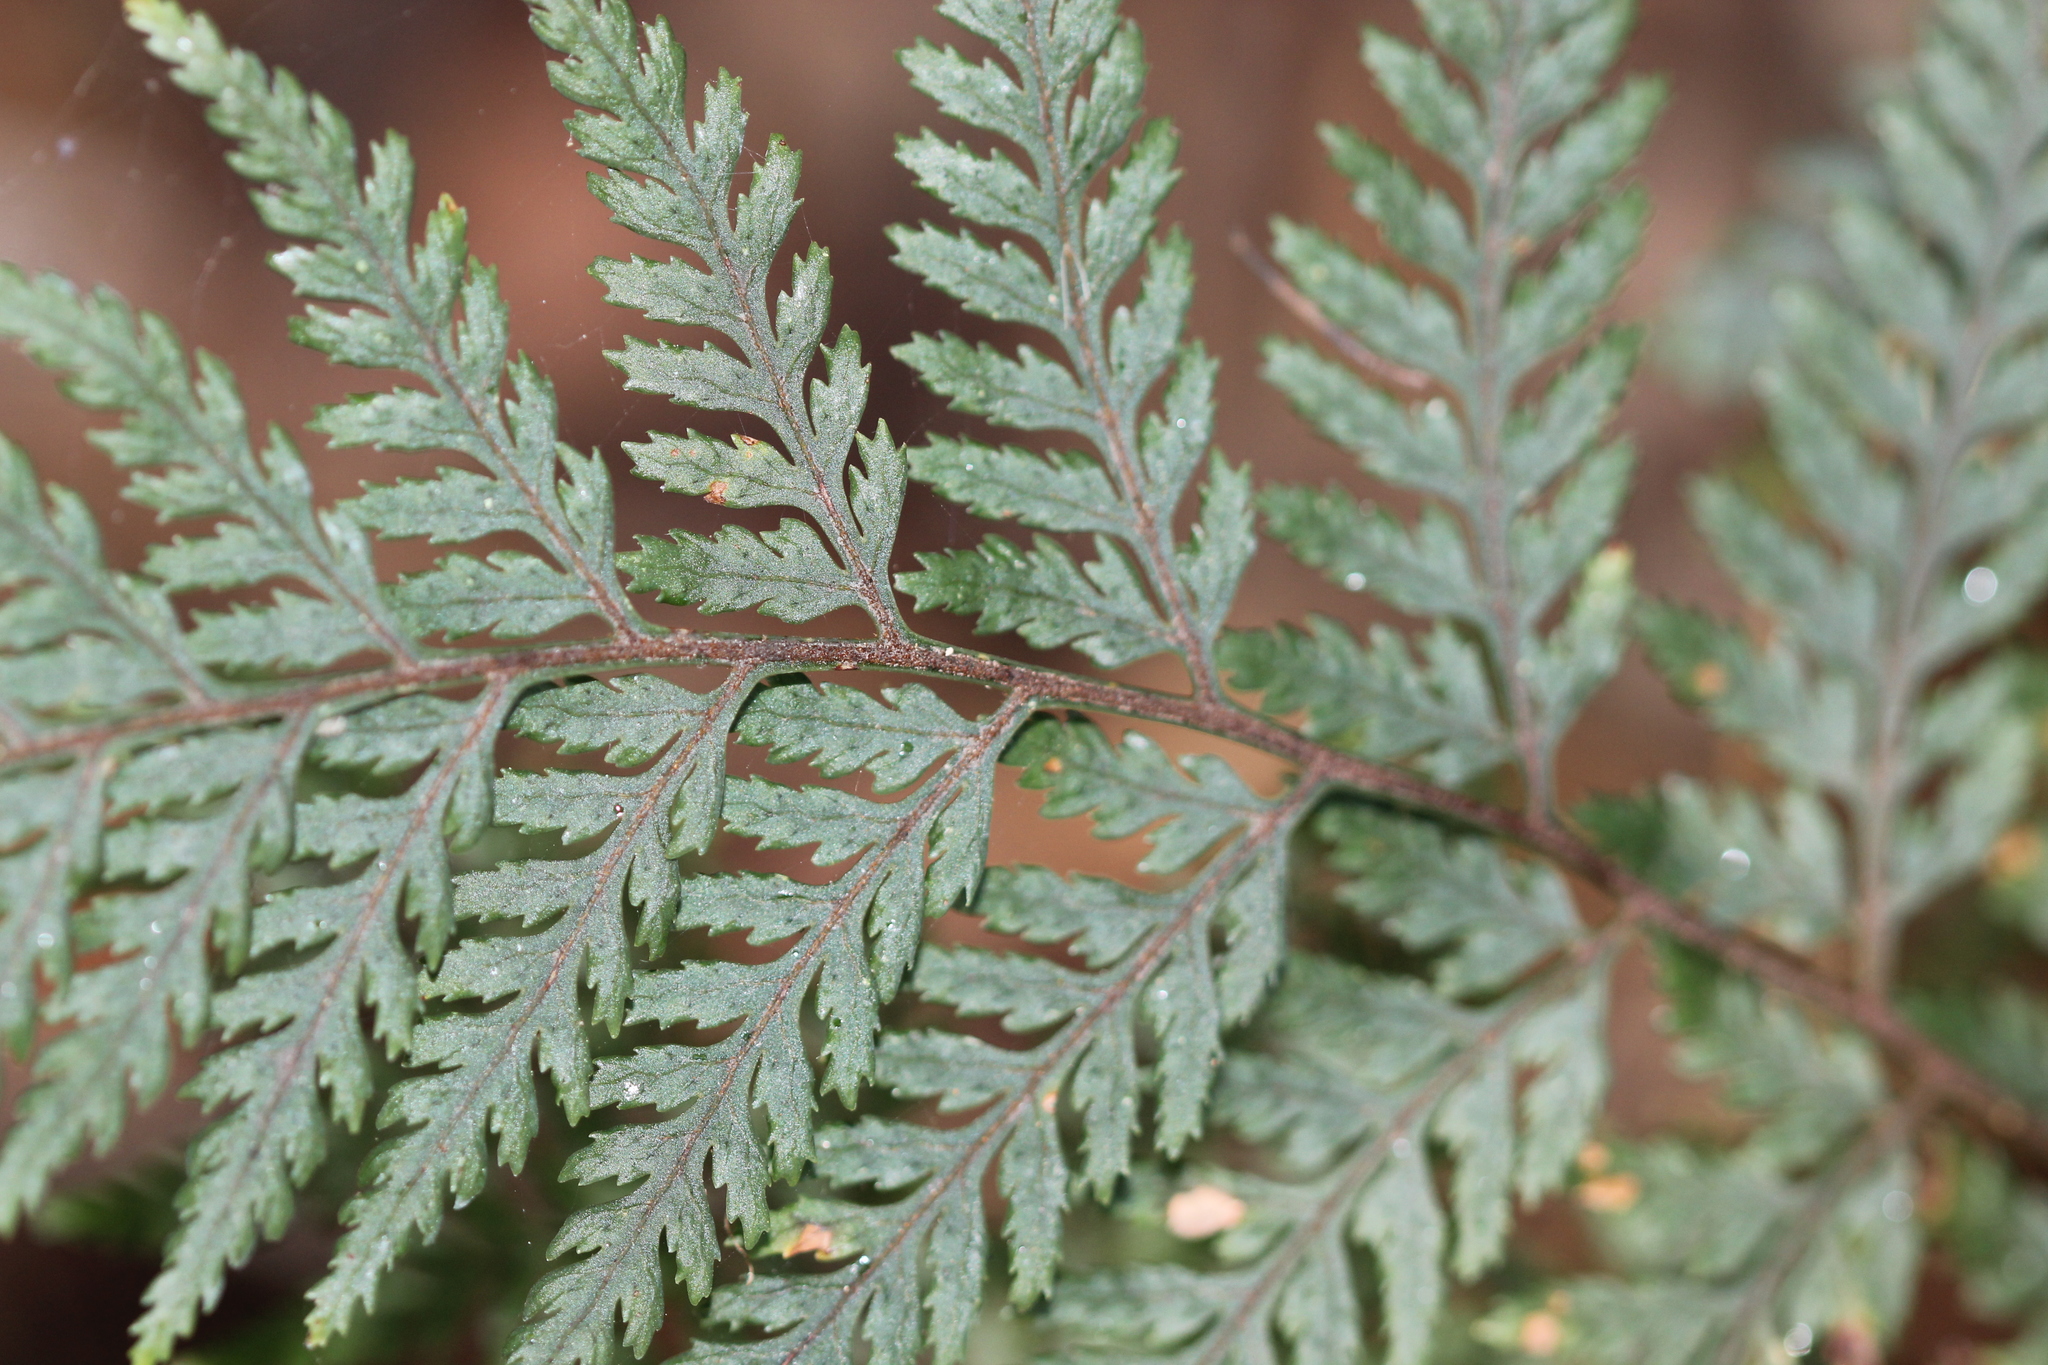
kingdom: Plantae
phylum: Tracheophyta
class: Polypodiopsida
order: Polypodiales
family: Dryopteridaceae
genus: Parapolystichum
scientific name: Parapolystichum glabellum
